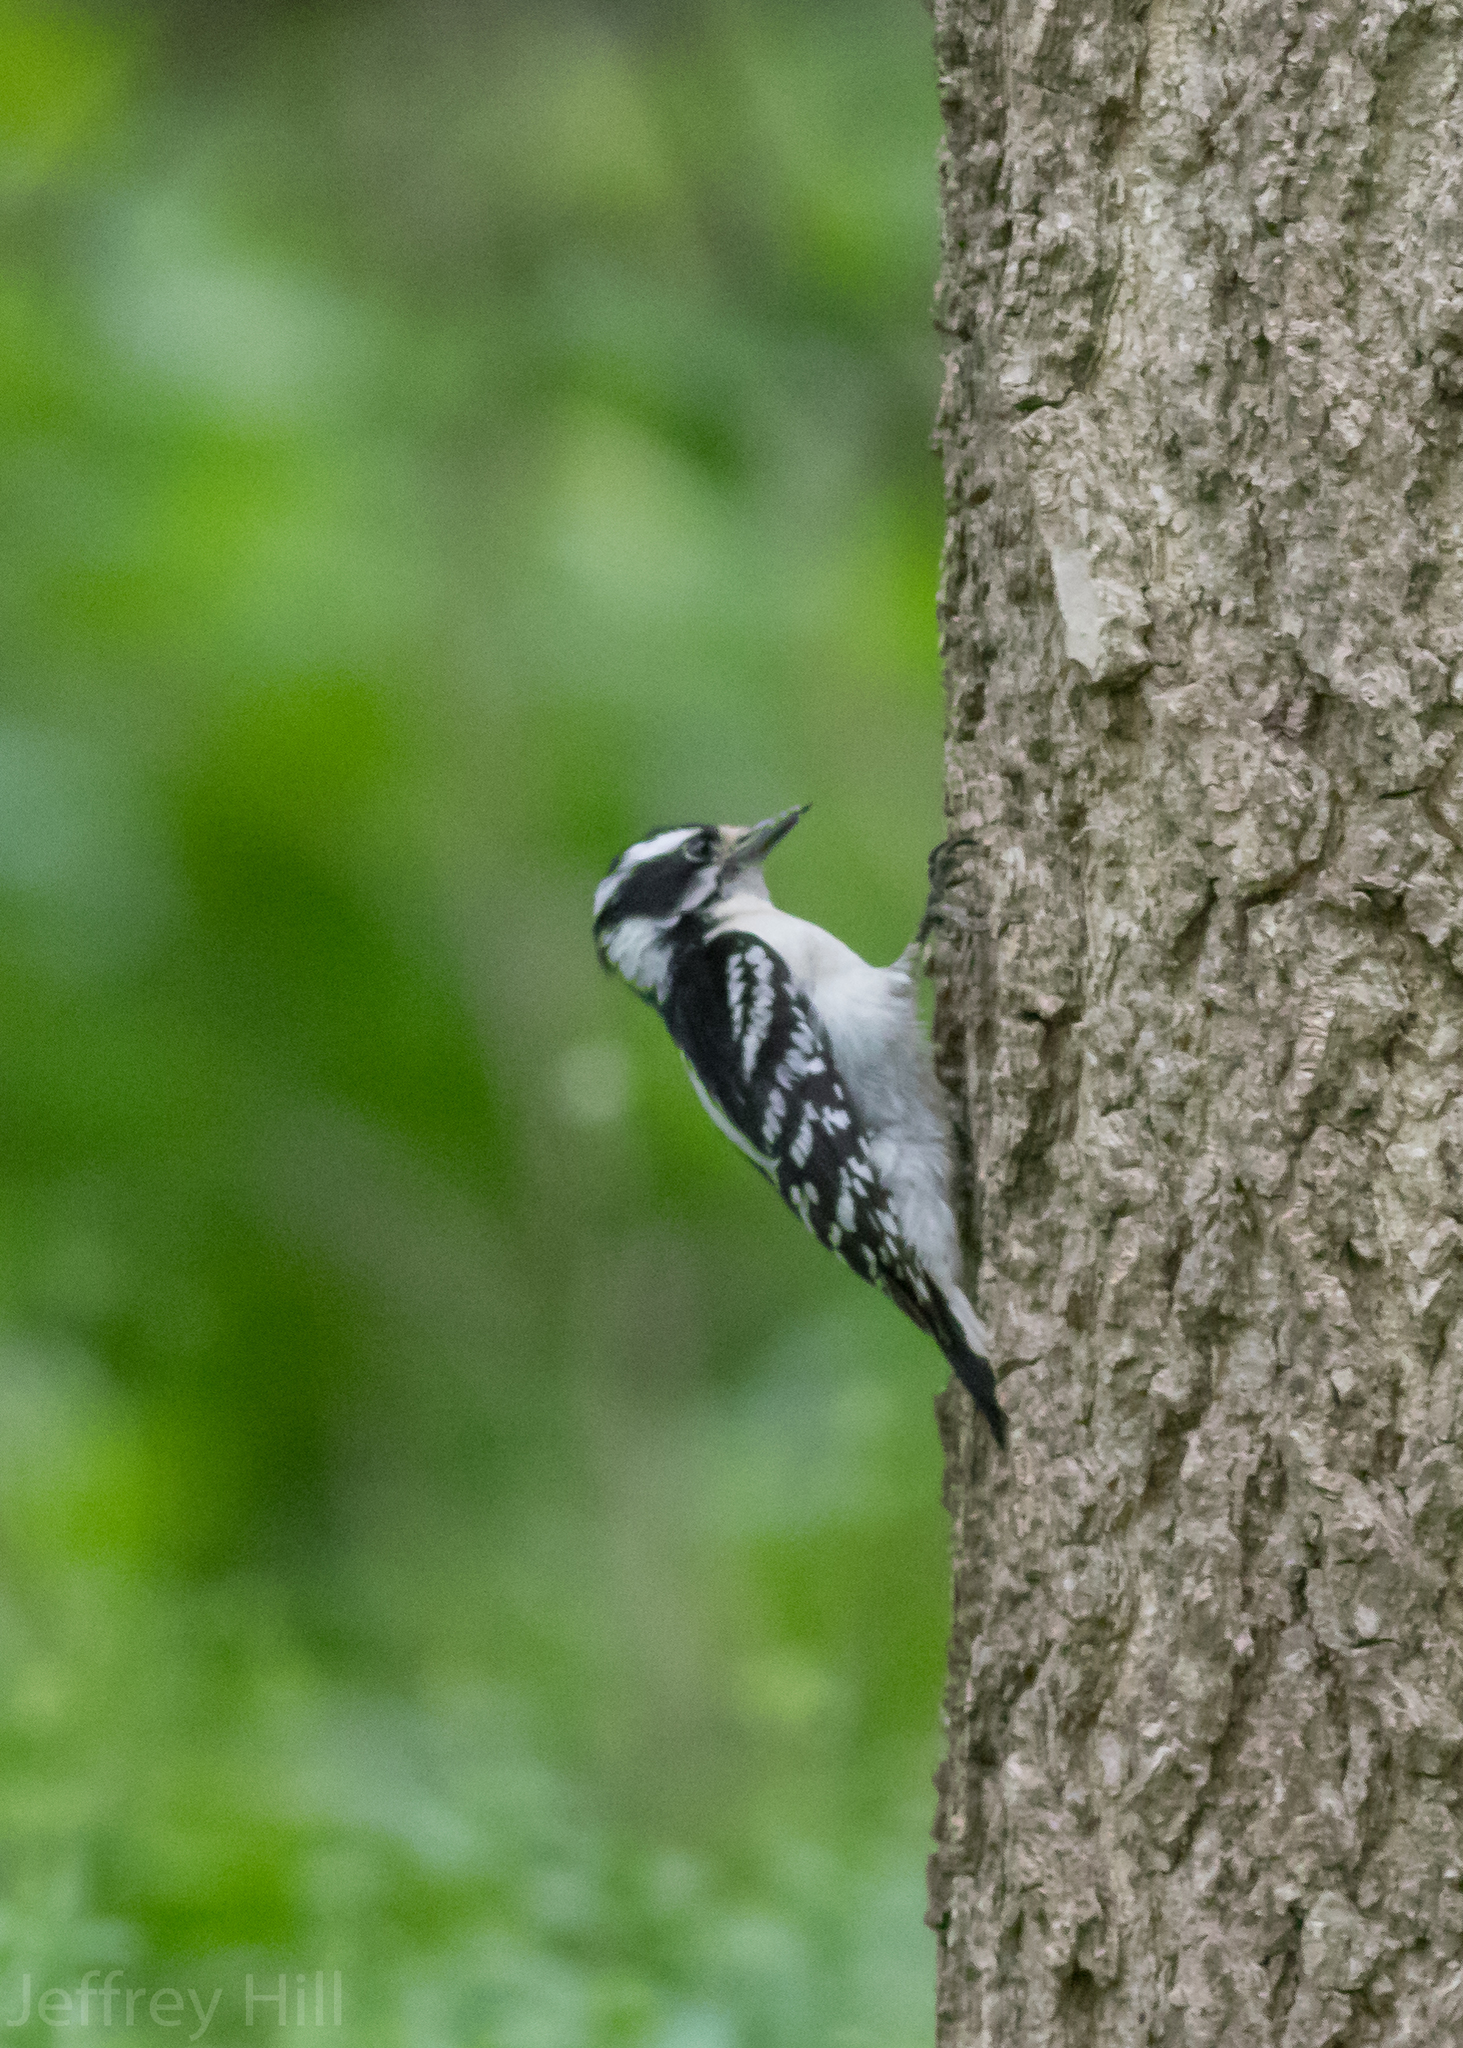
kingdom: Animalia
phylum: Chordata
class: Aves
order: Piciformes
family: Picidae
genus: Dryobates
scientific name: Dryobates pubescens
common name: Downy woodpecker
